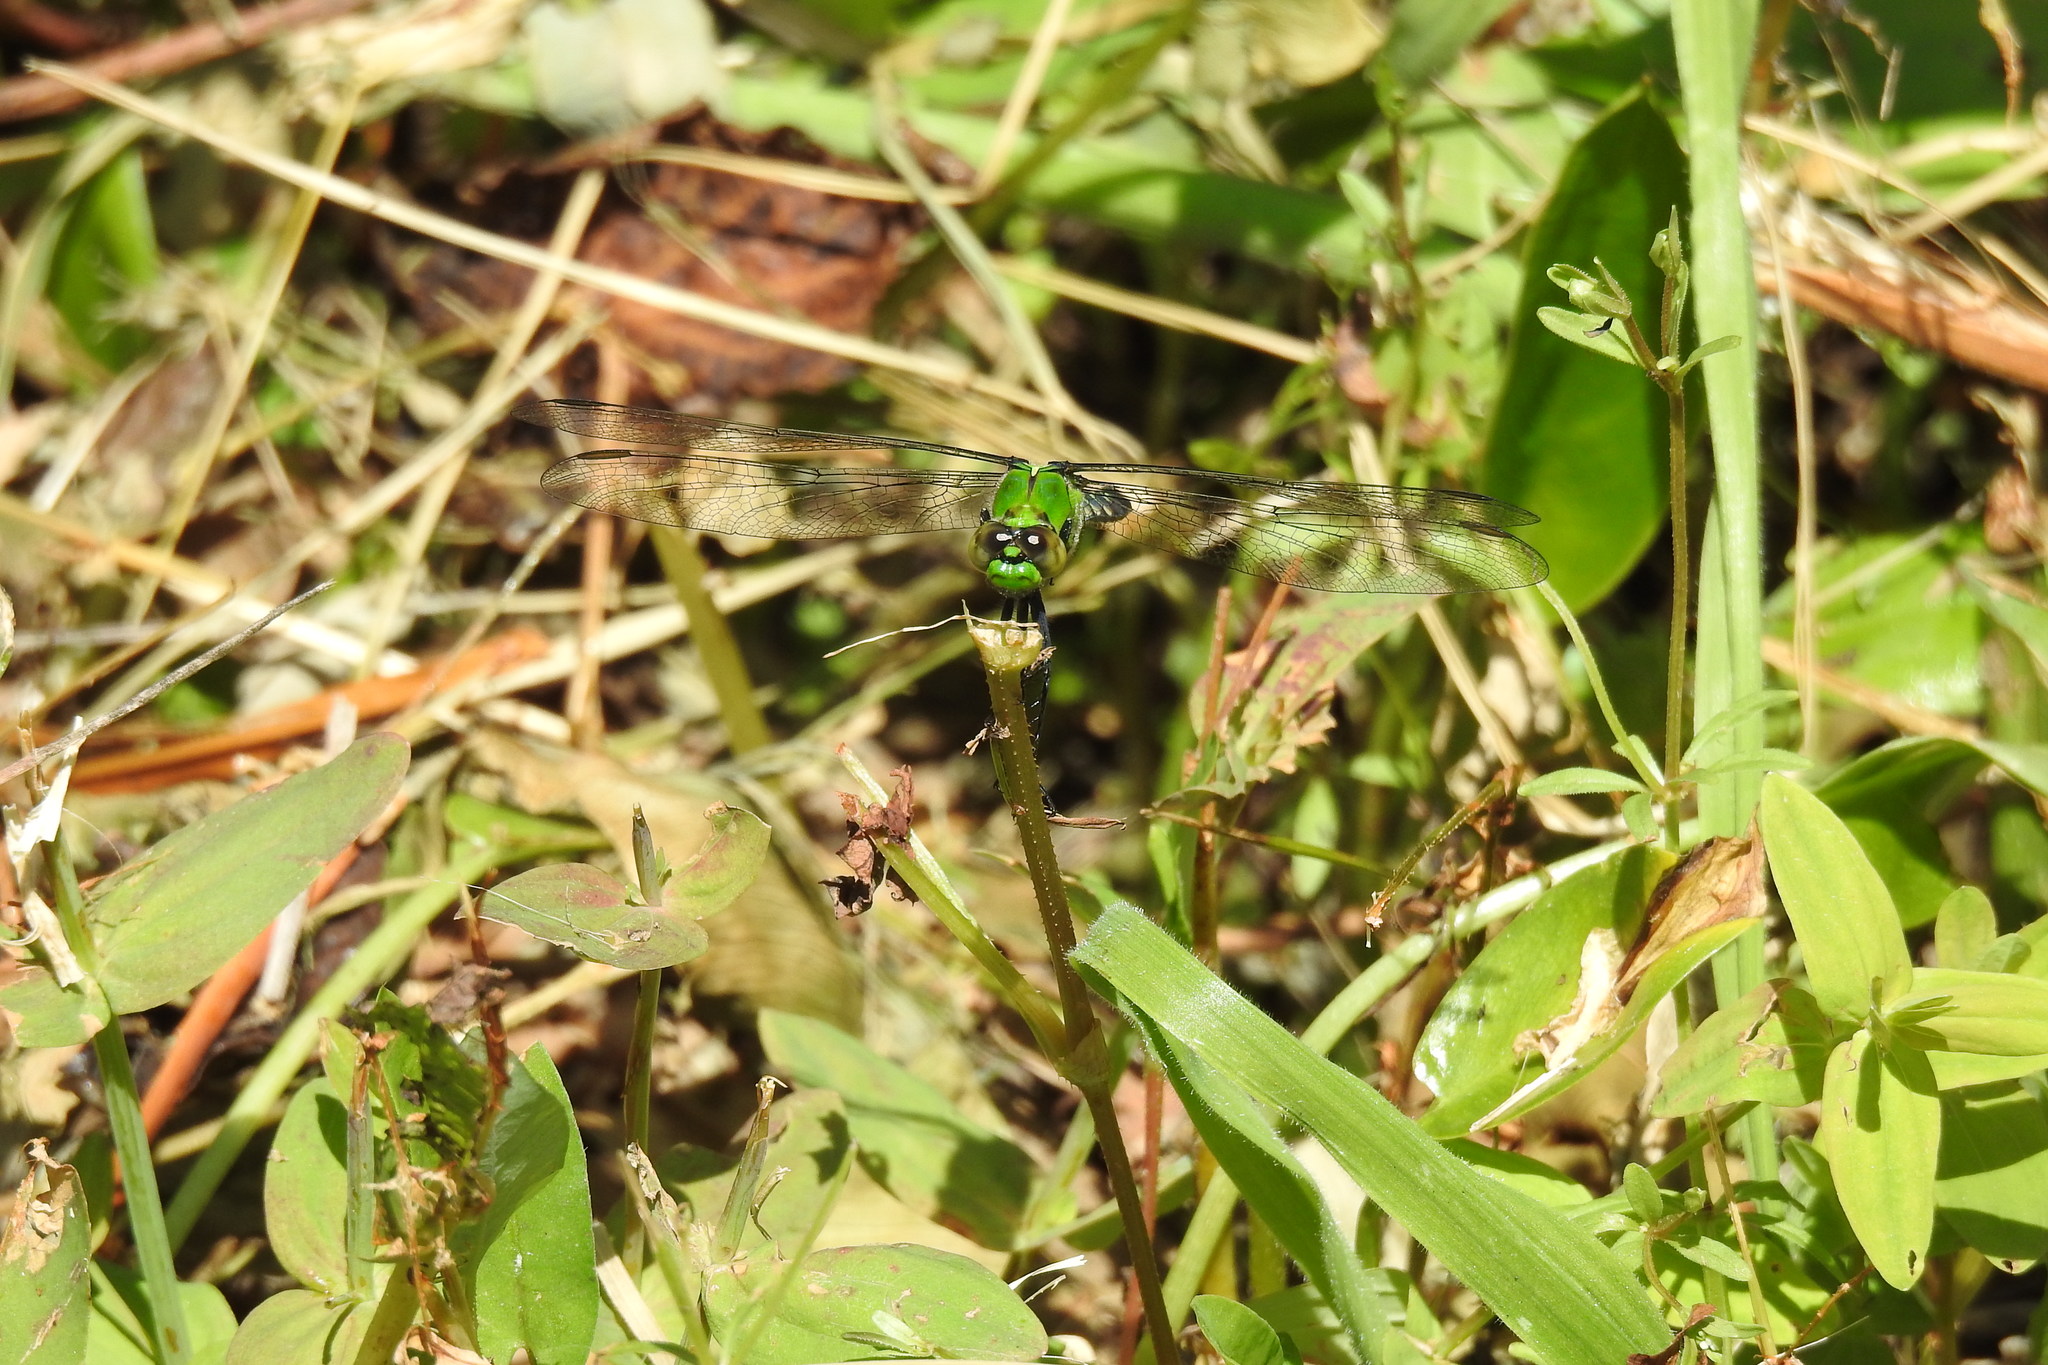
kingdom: Animalia
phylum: Arthropoda
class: Insecta
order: Odonata
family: Libellulidae
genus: Erythemis
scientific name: Erythemis simplicicollis
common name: Eastern pondhawk
